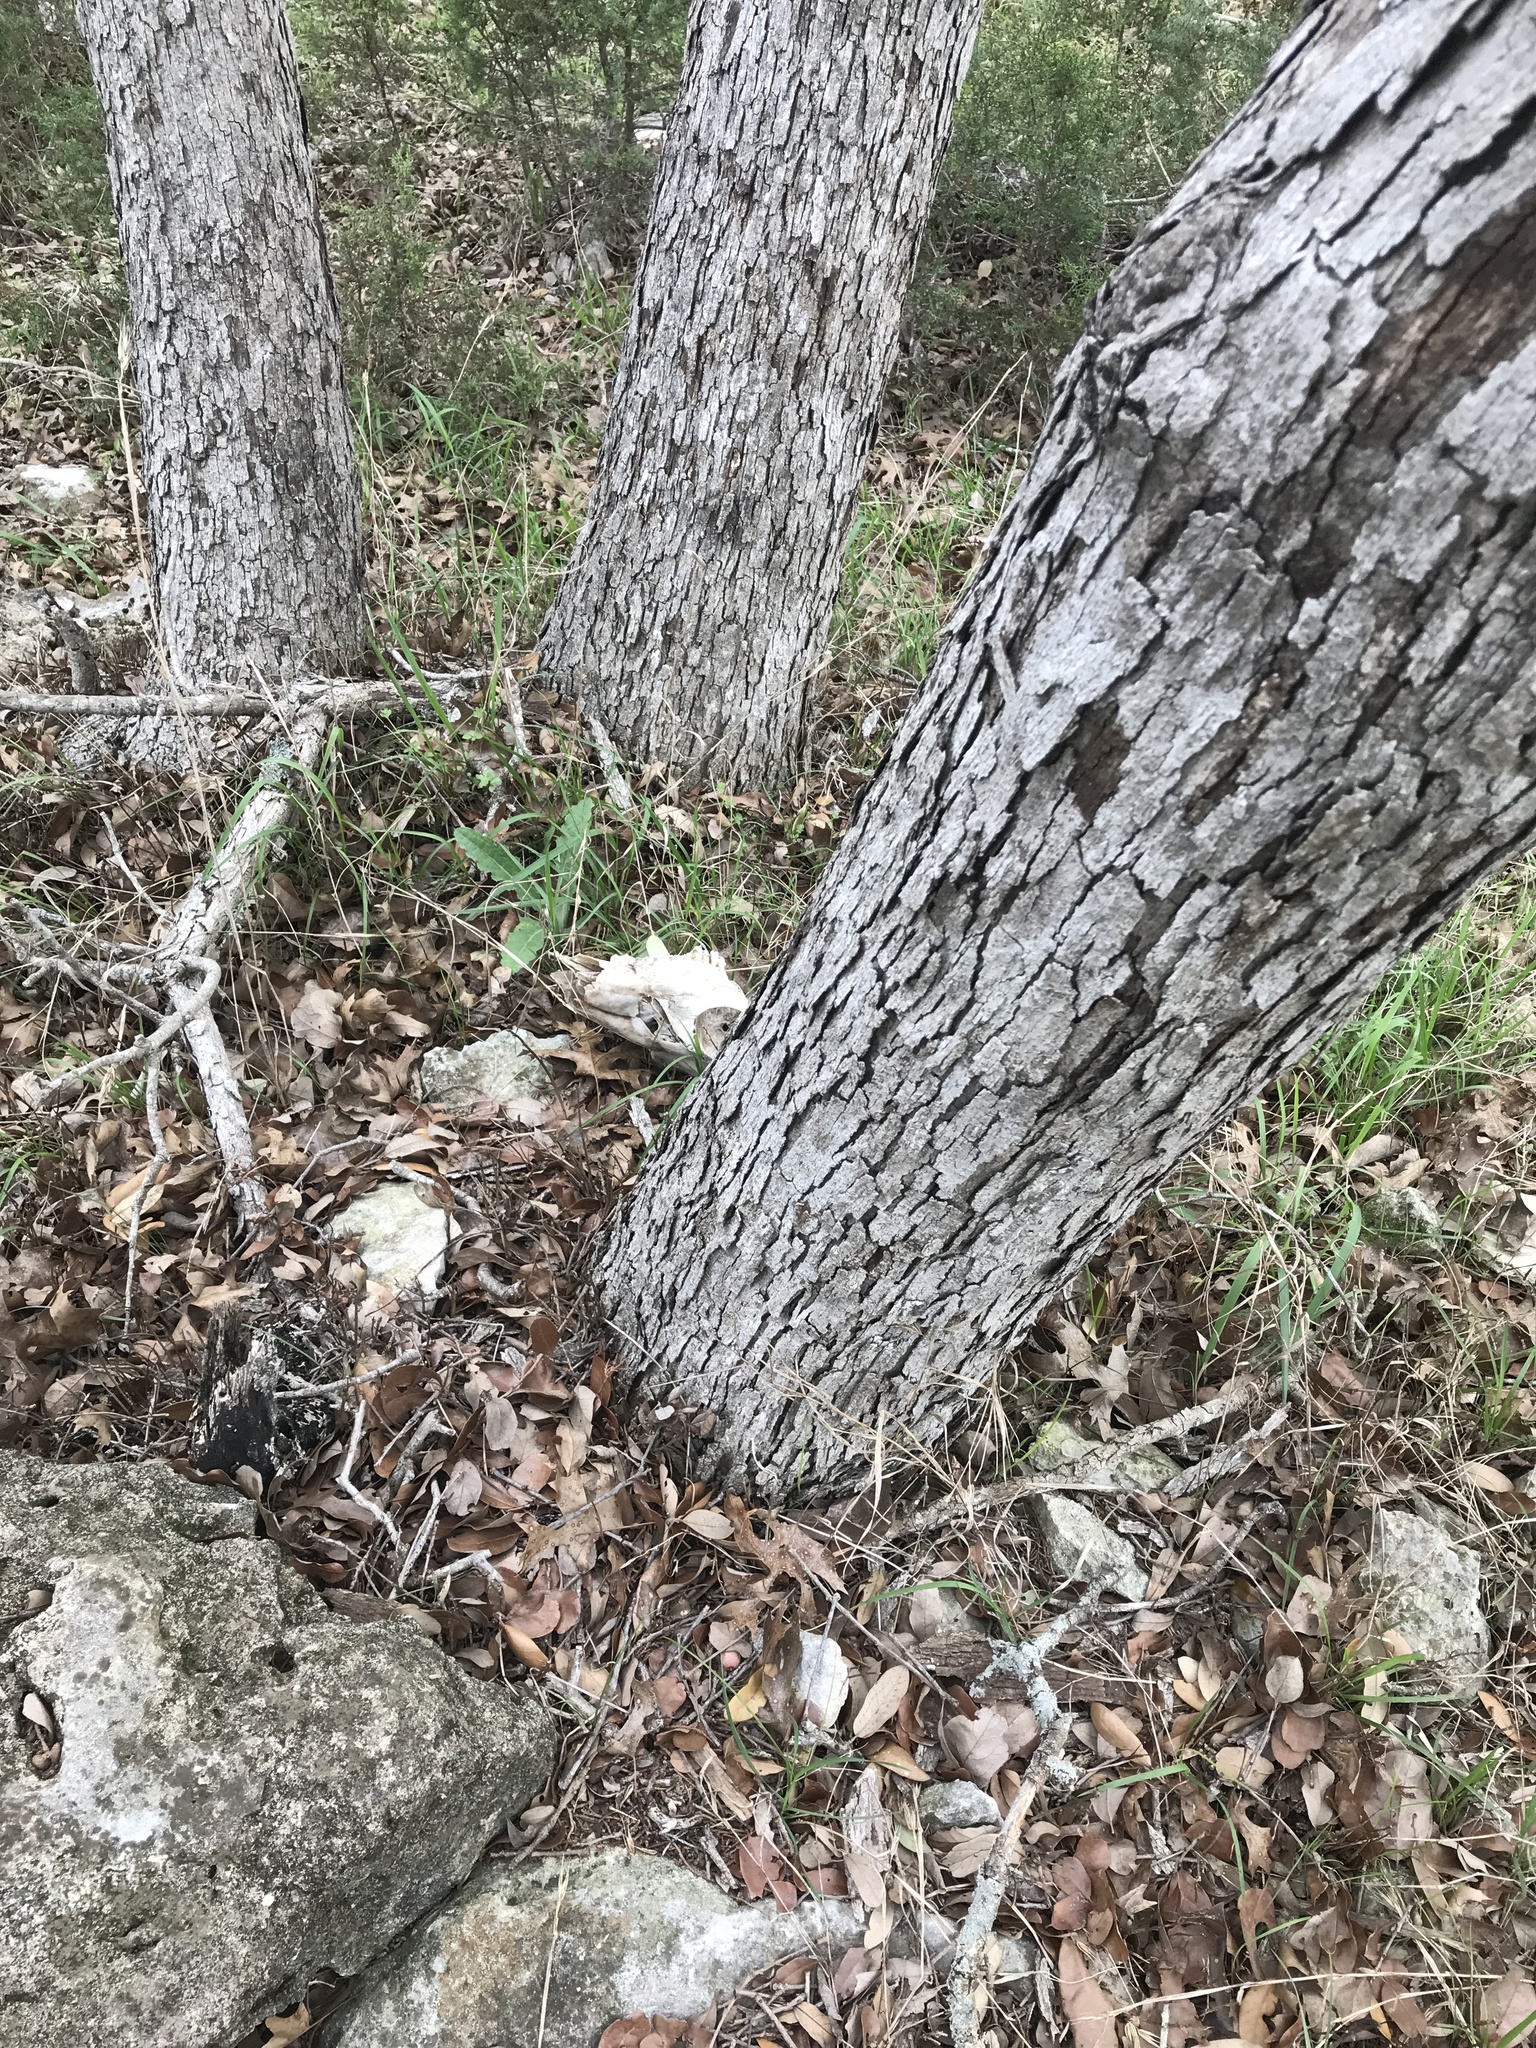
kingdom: Plantae
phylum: Tracheophyta
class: Magnoliopsida
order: Fagales
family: Fagaceae
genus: Quercus
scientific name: Quercus sinuata
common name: Durand oak
